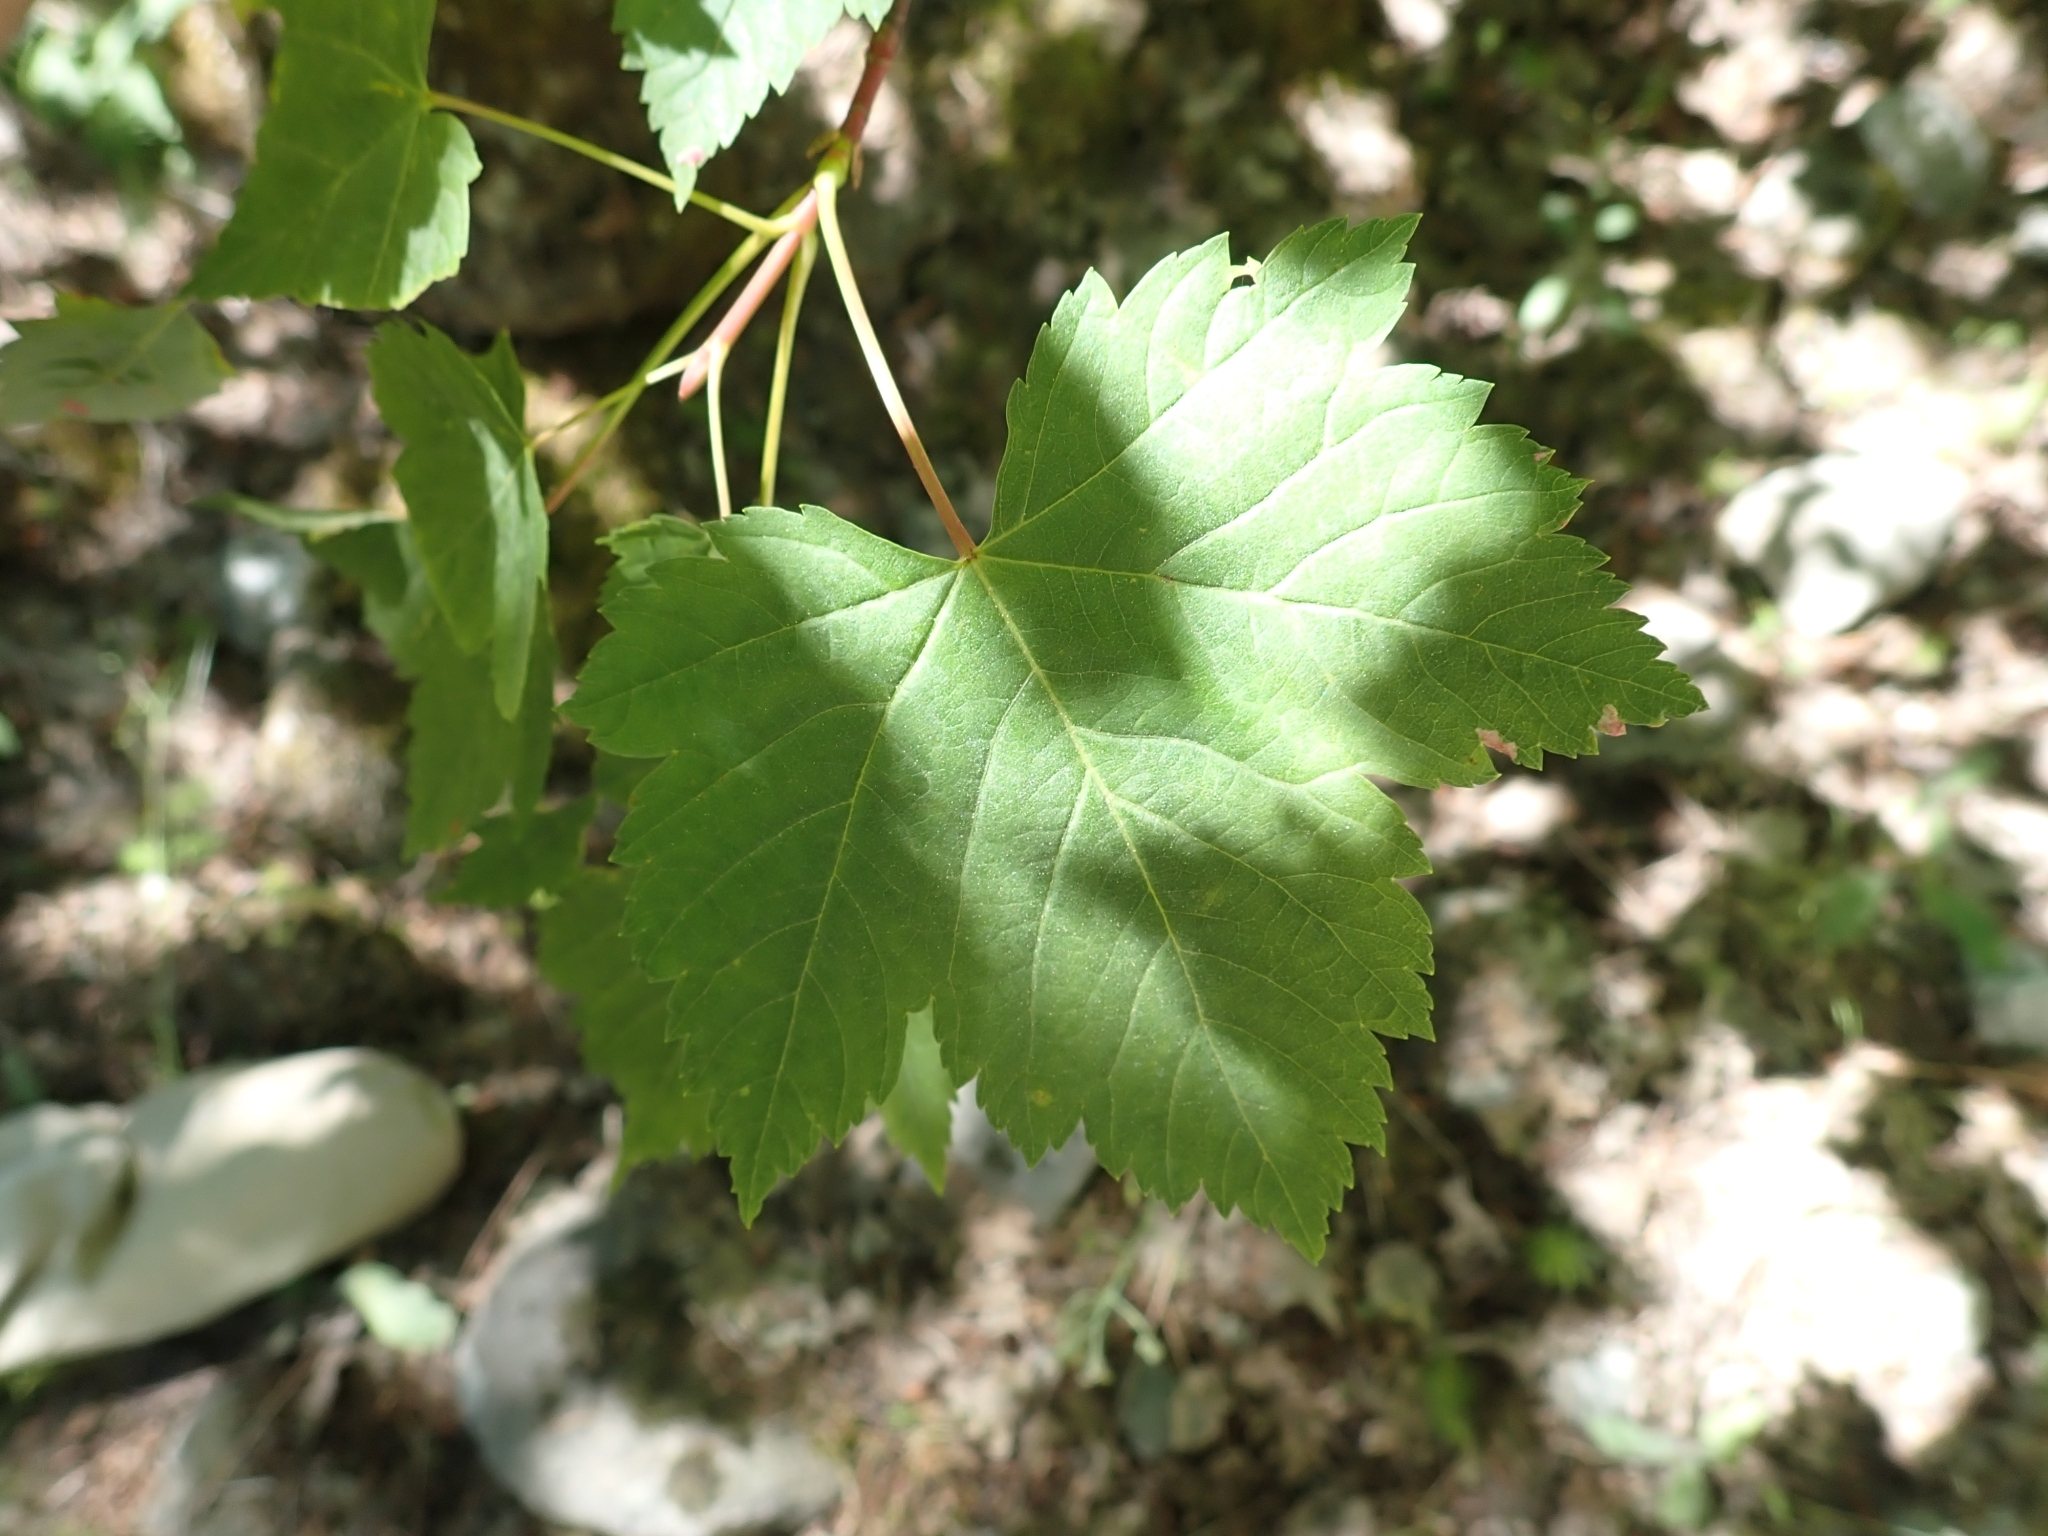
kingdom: Plantae
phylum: Tracheophyta
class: Magnoliopsida
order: Sapindales
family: Sapindaceae
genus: Acer
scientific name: Acer glabrum
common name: Rocky mountain maple
